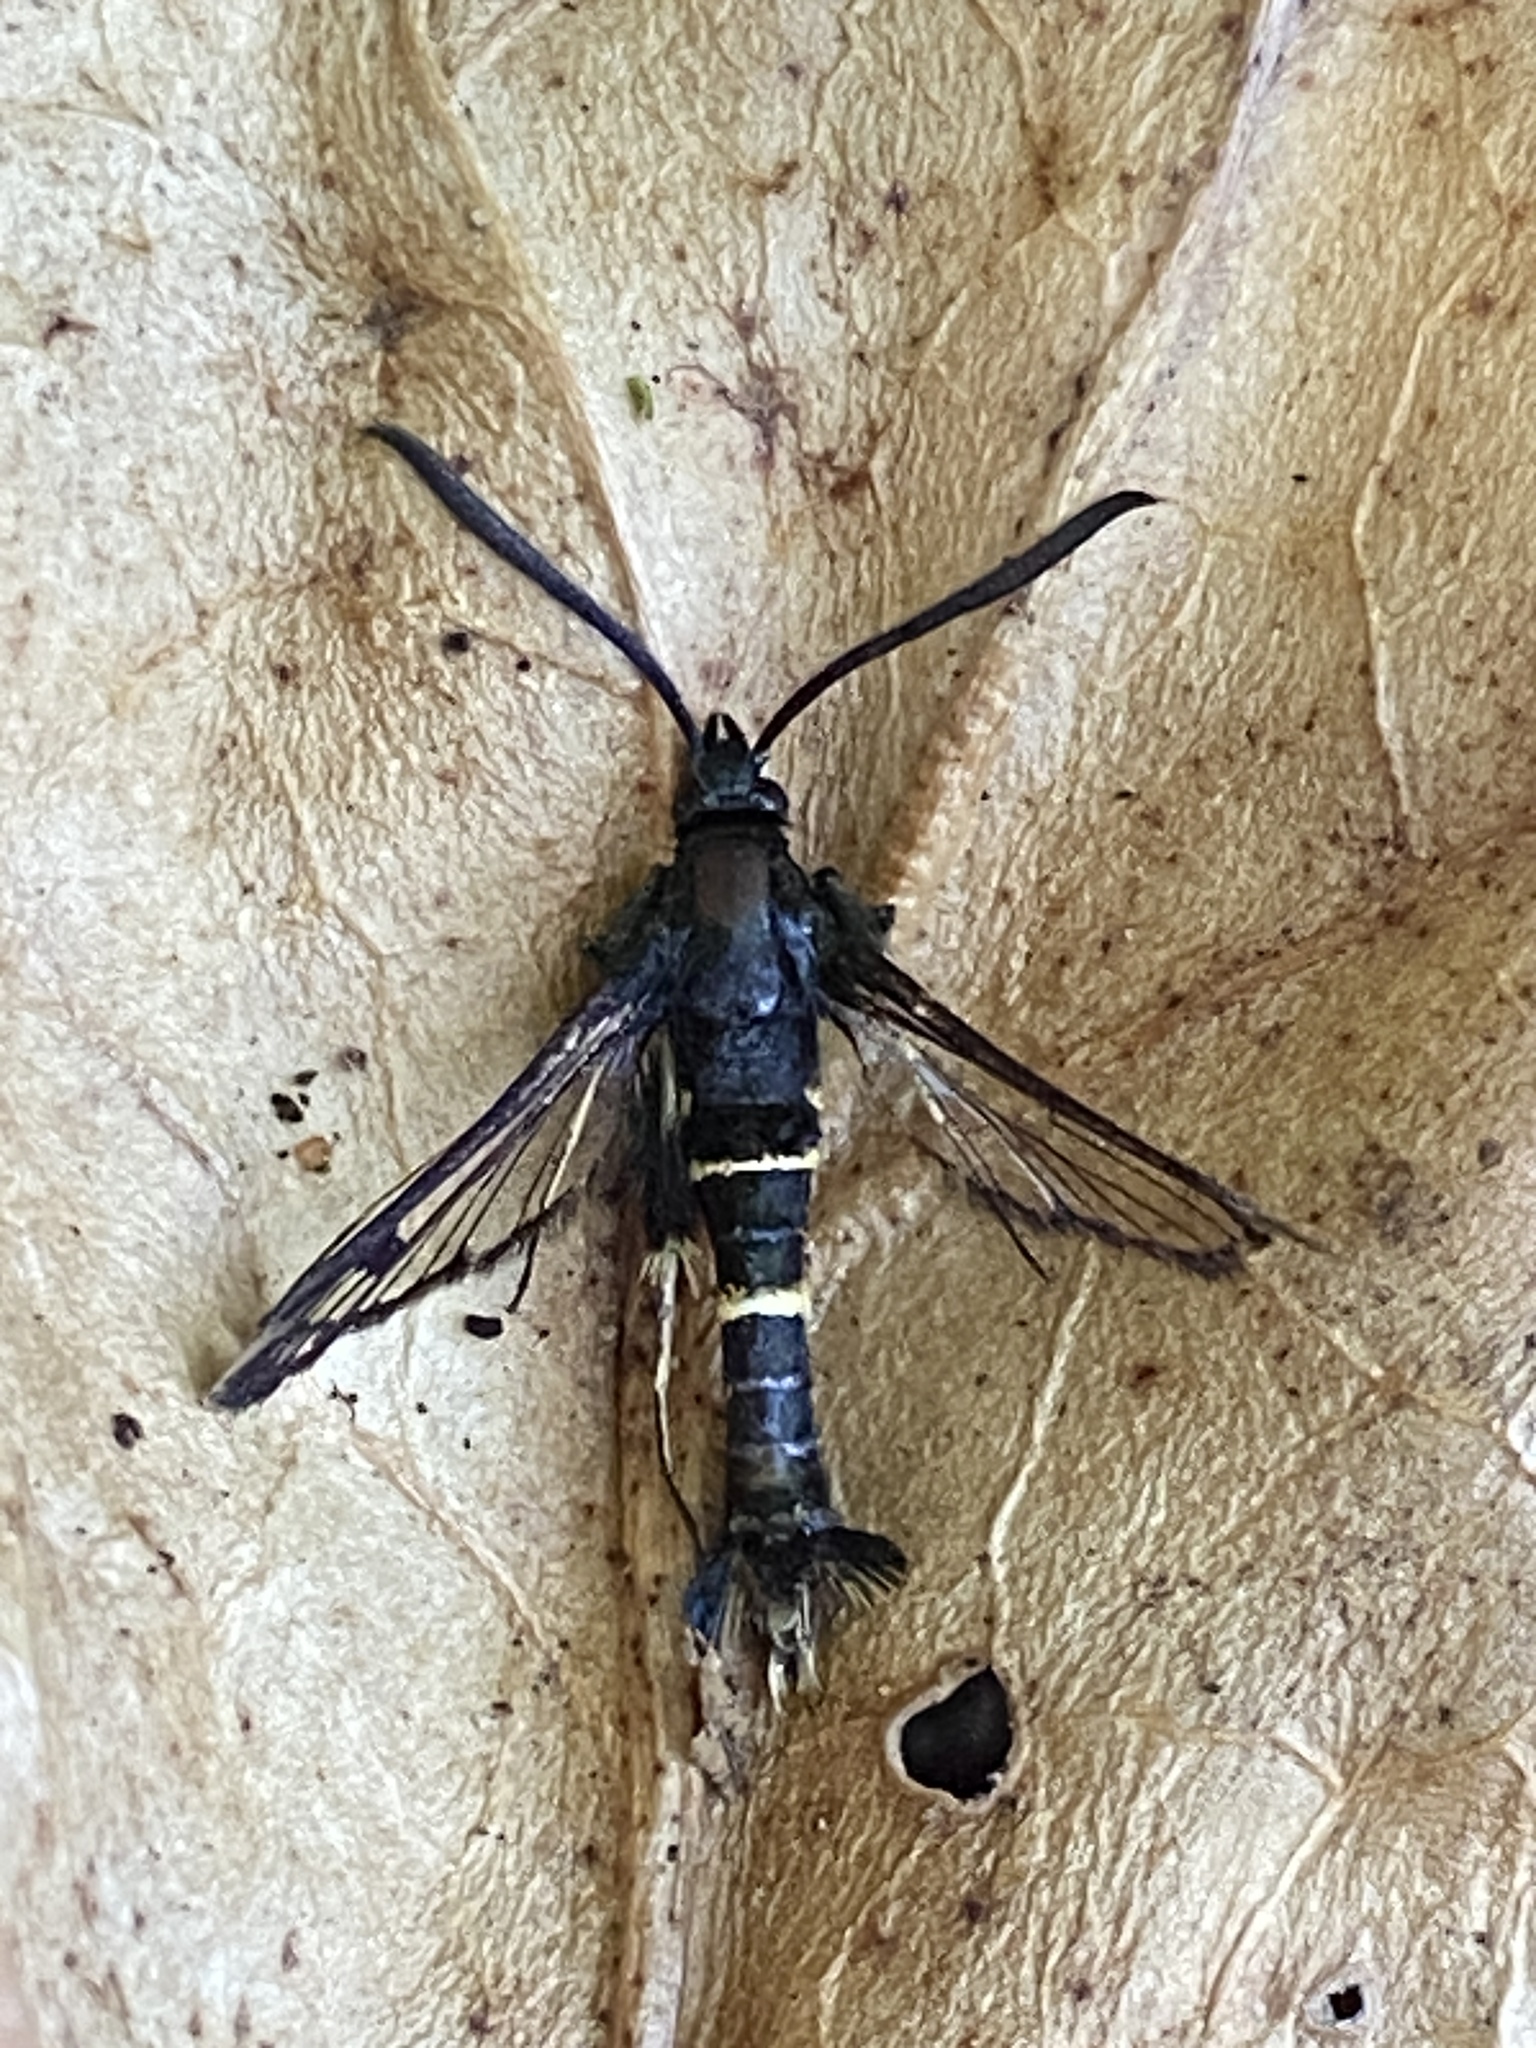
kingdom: Animalia
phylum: Arthropoda
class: Insecta
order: Lepidoptera
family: Sesiidae
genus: Synanthedon
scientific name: Synanthedon andrenaeformis
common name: Orange-tailed clearwing
